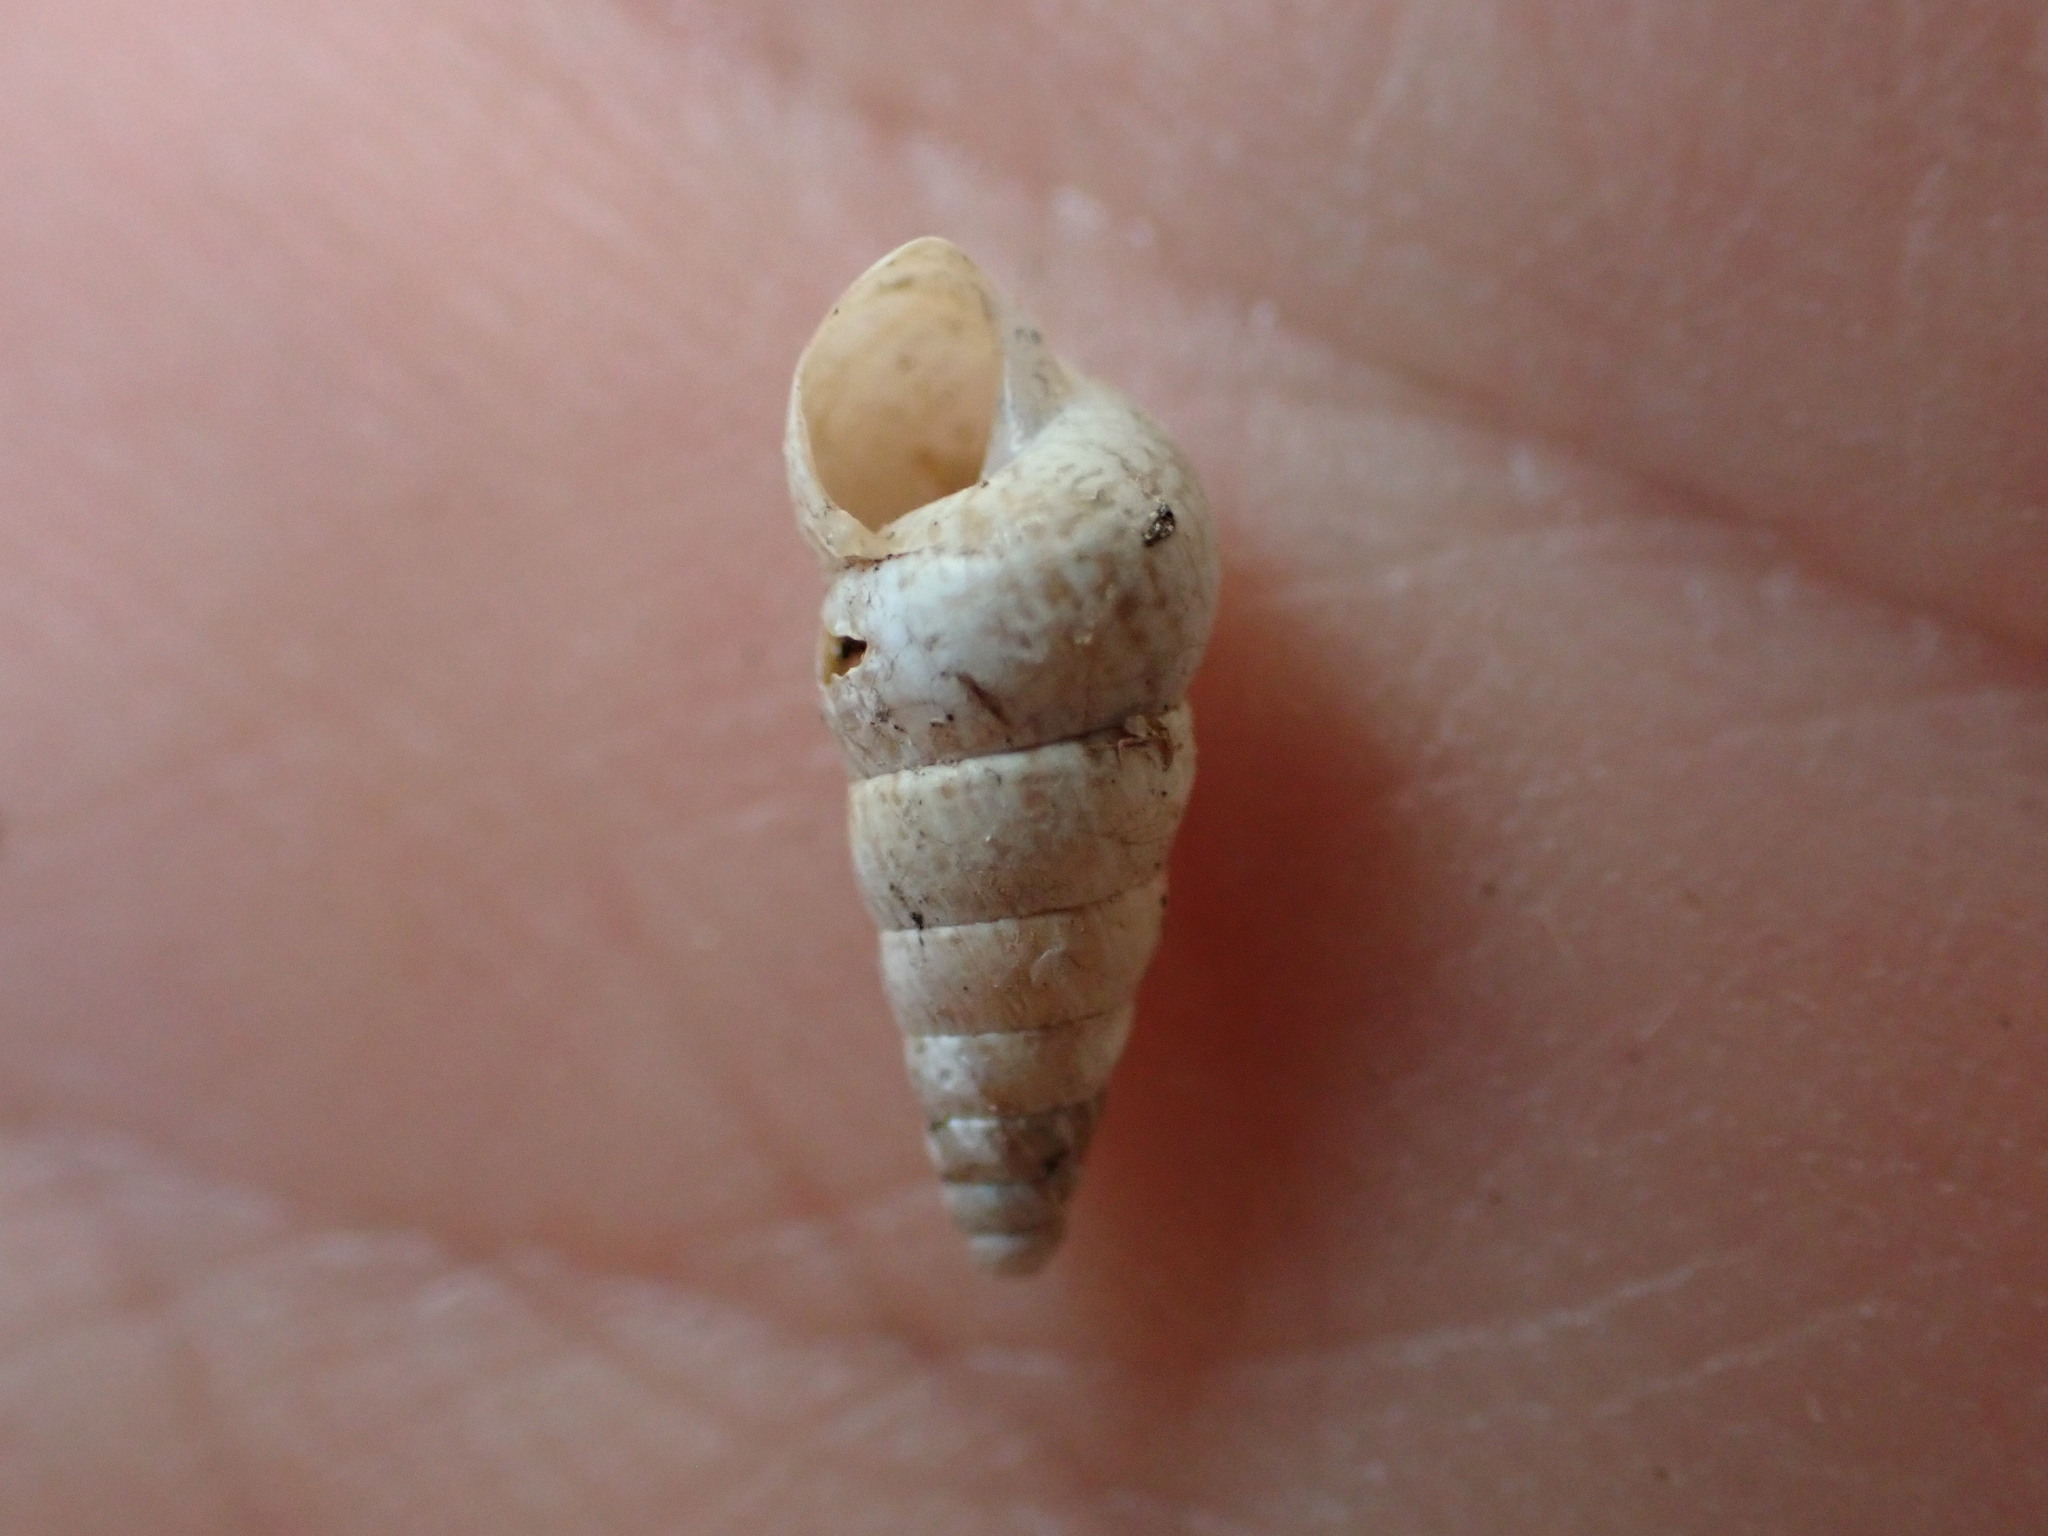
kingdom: Animalia
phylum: Mollusca
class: Gastropoda
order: Stylommatophora
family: Geomitridae
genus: Cochlicella
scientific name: Cochlicella acuta
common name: Pointed snail
